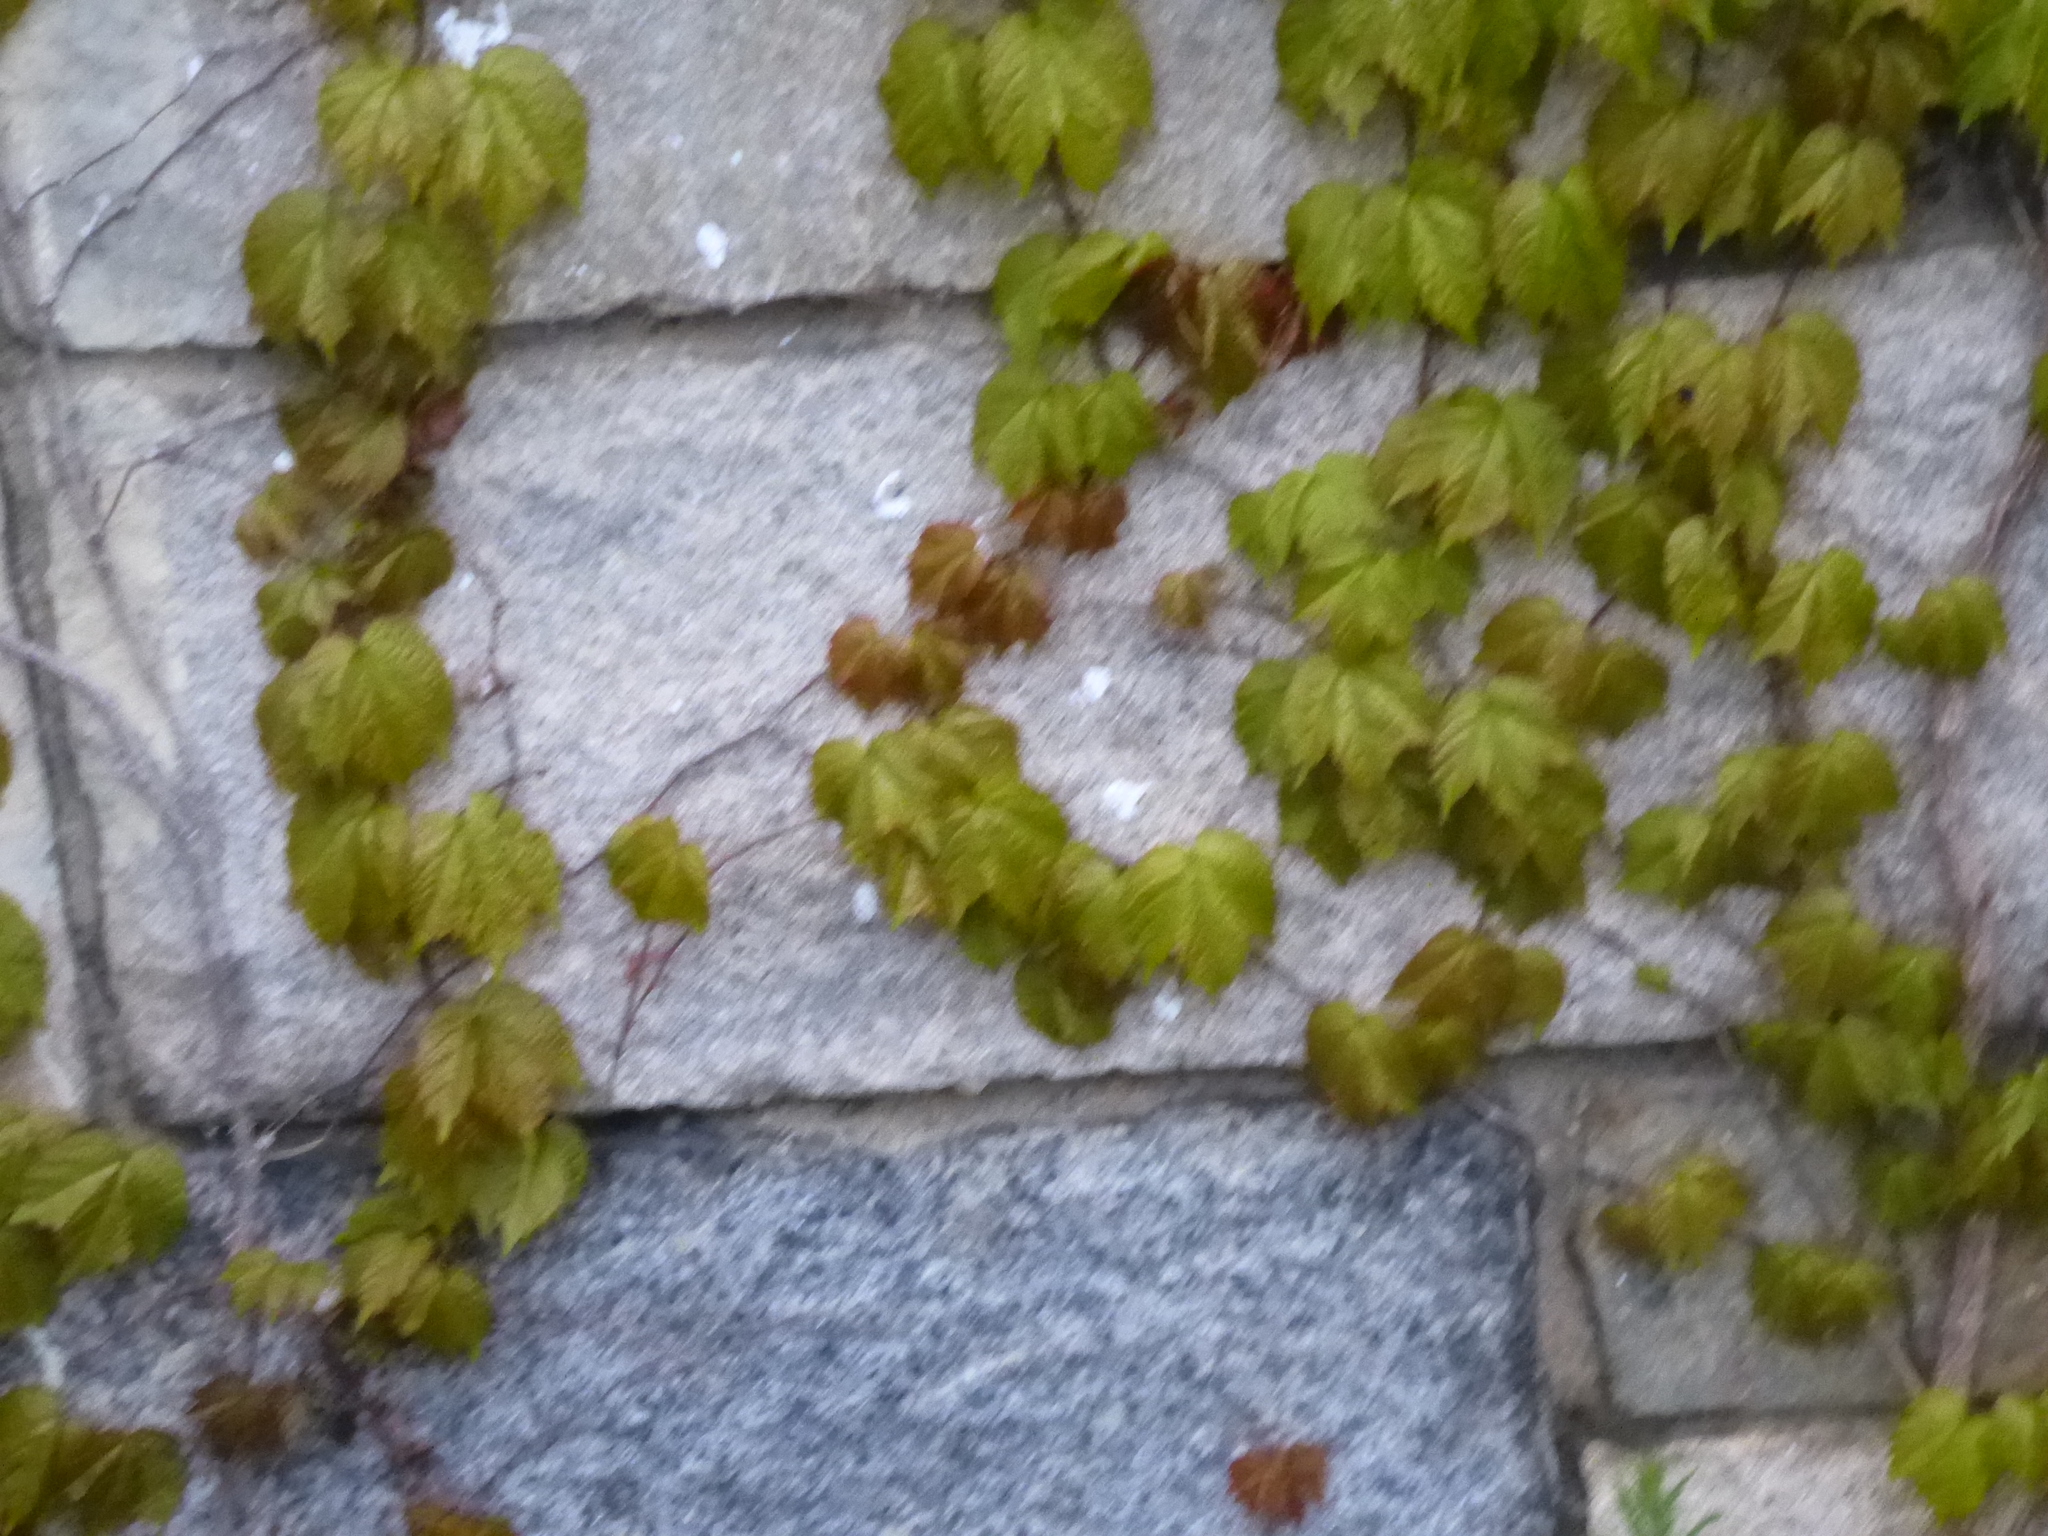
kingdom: Plantae
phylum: Tracheophyta
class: Magnoliopsida
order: Vitales
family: Vitaceae
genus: Parthenocissus
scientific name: Parthenocissus tricuspidata
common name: Boston ivy
